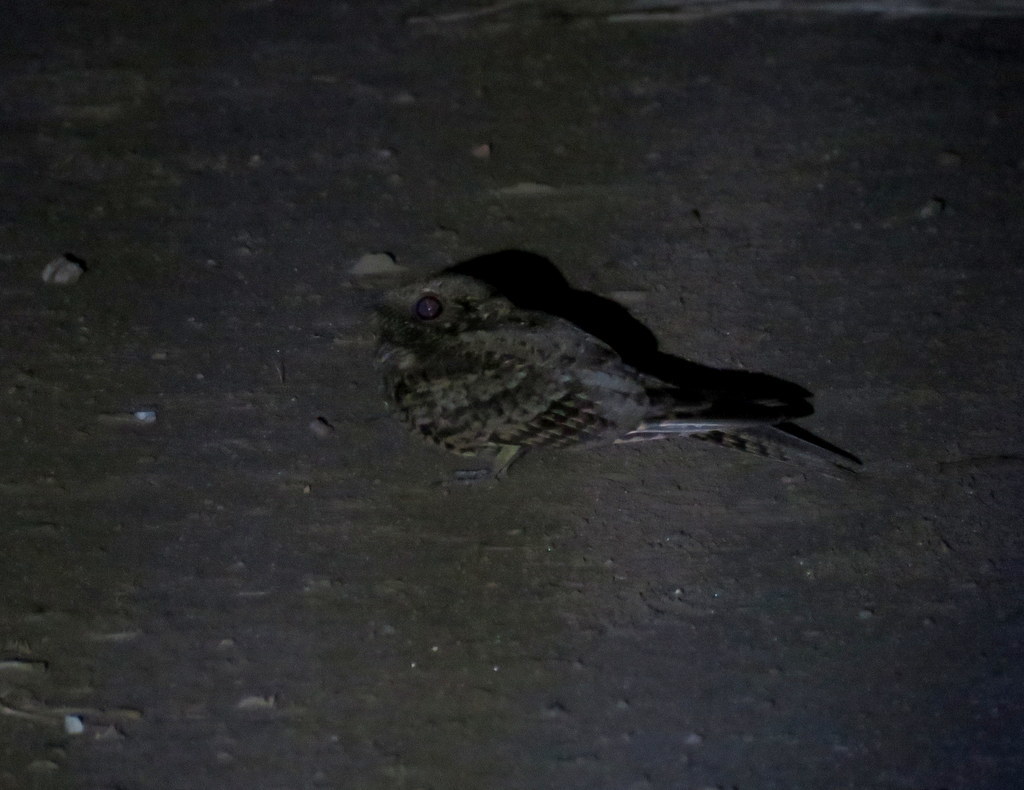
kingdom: Animalia
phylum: Chordata
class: Aves
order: Caprimulgiformes
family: Caprimulgidae
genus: Hydropsalis
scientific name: Hydropsalis torquata
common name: Scissor-tailed nightjar
